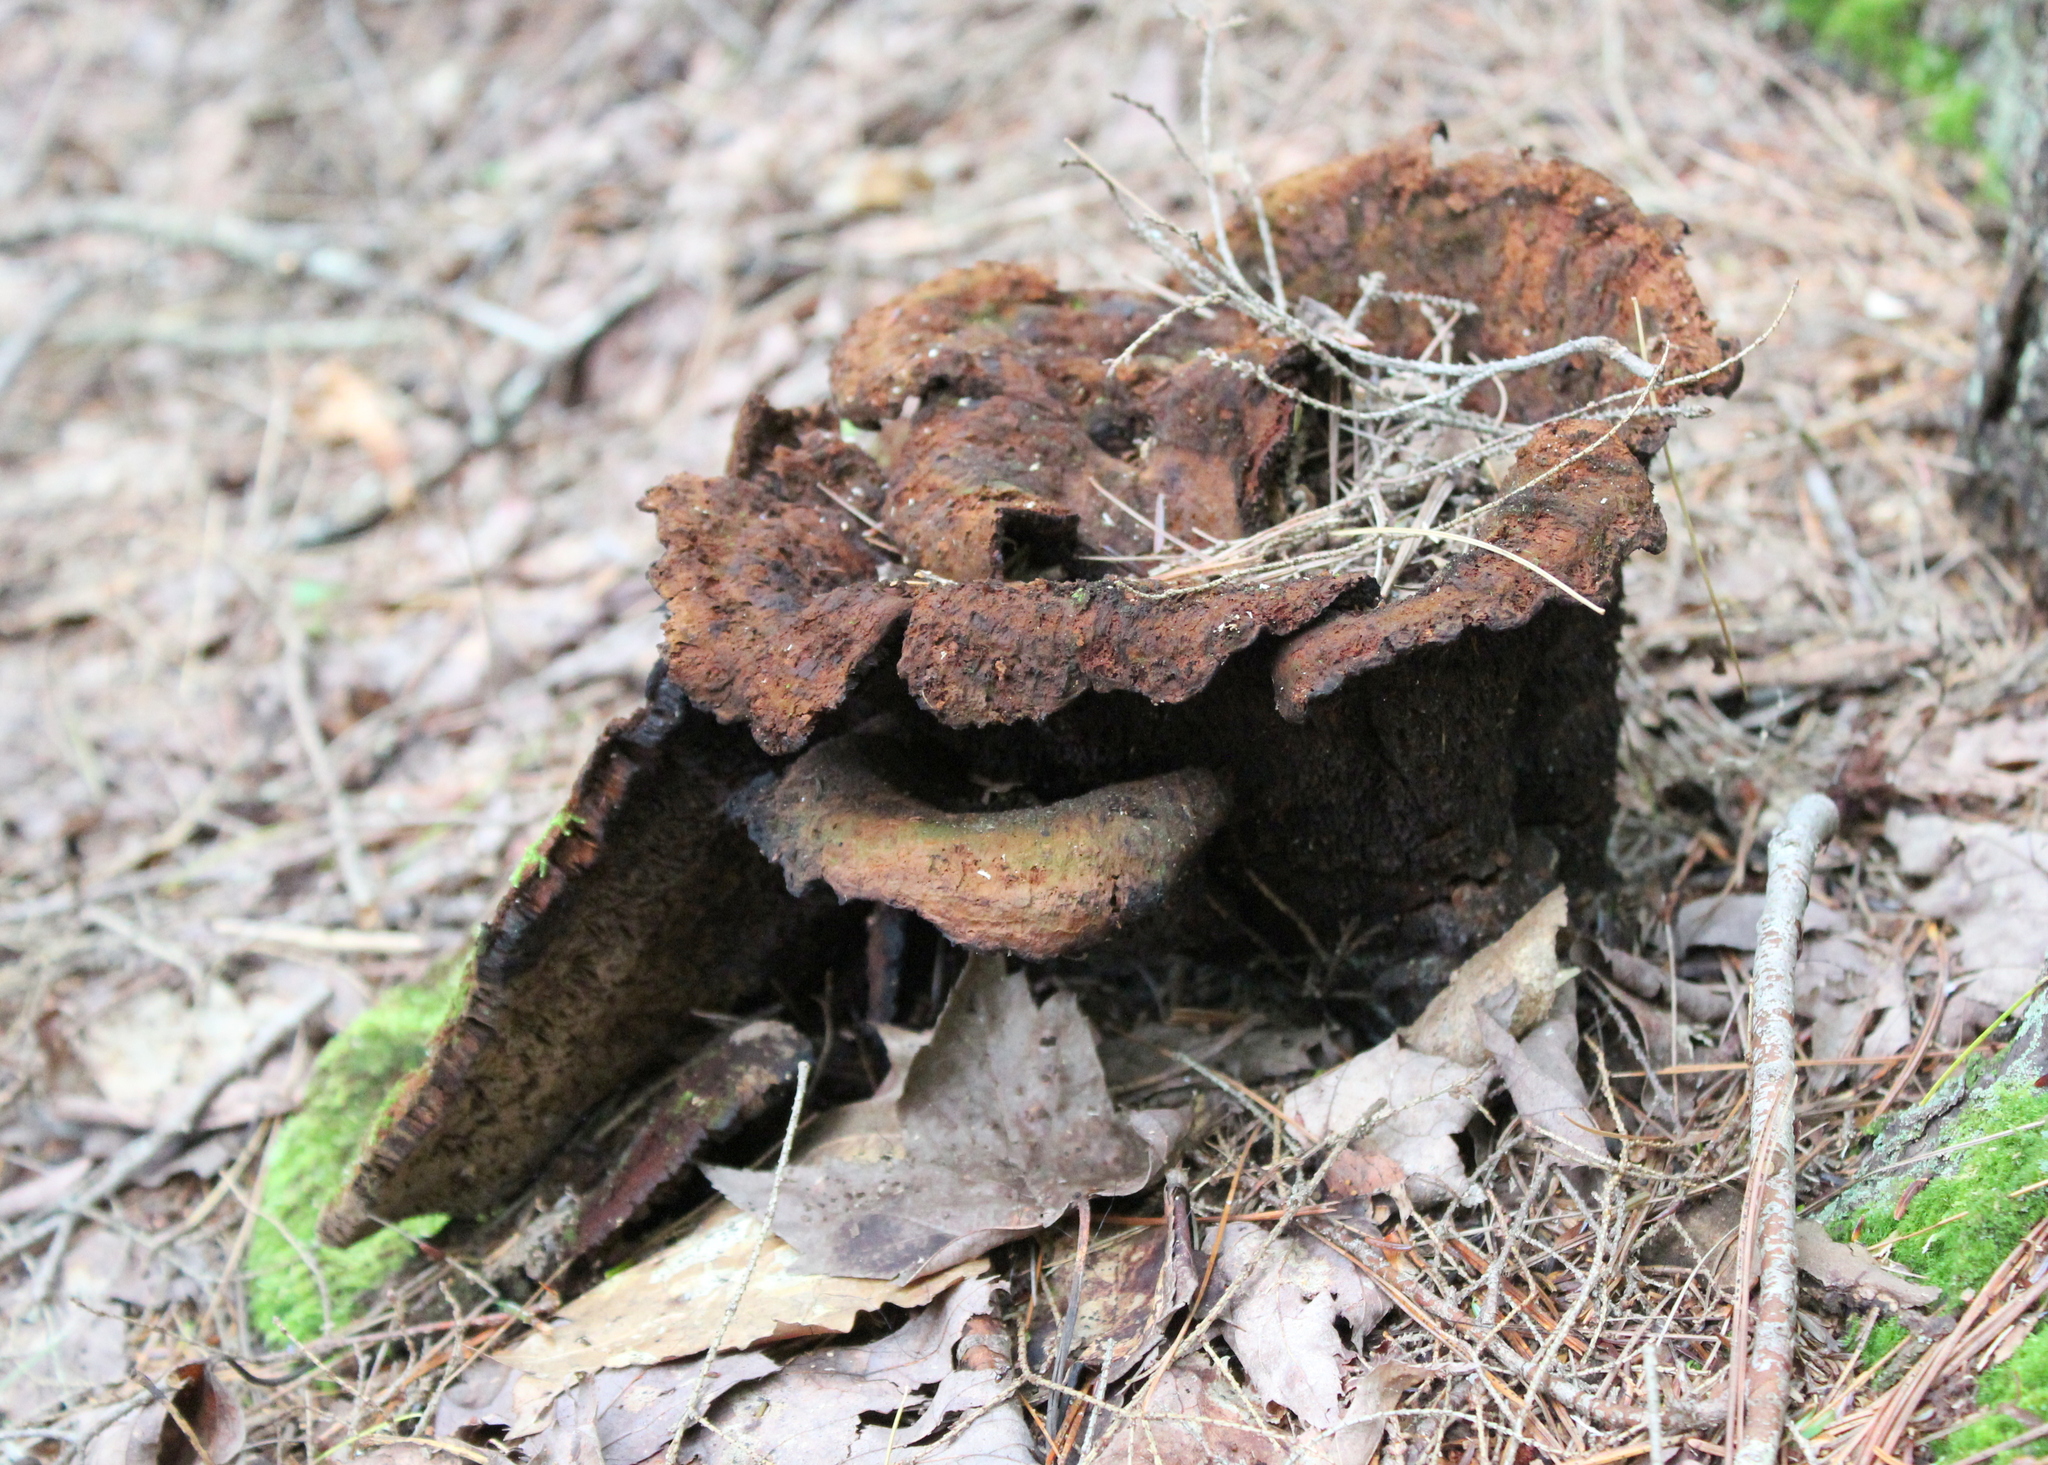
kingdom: Fungi
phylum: Basidiomycota
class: Agaricomycetes
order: Polyporales
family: Laetiporaceae
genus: Phaeolus
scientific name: Phaeolus schweinitzii
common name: Dyer's mazegill
